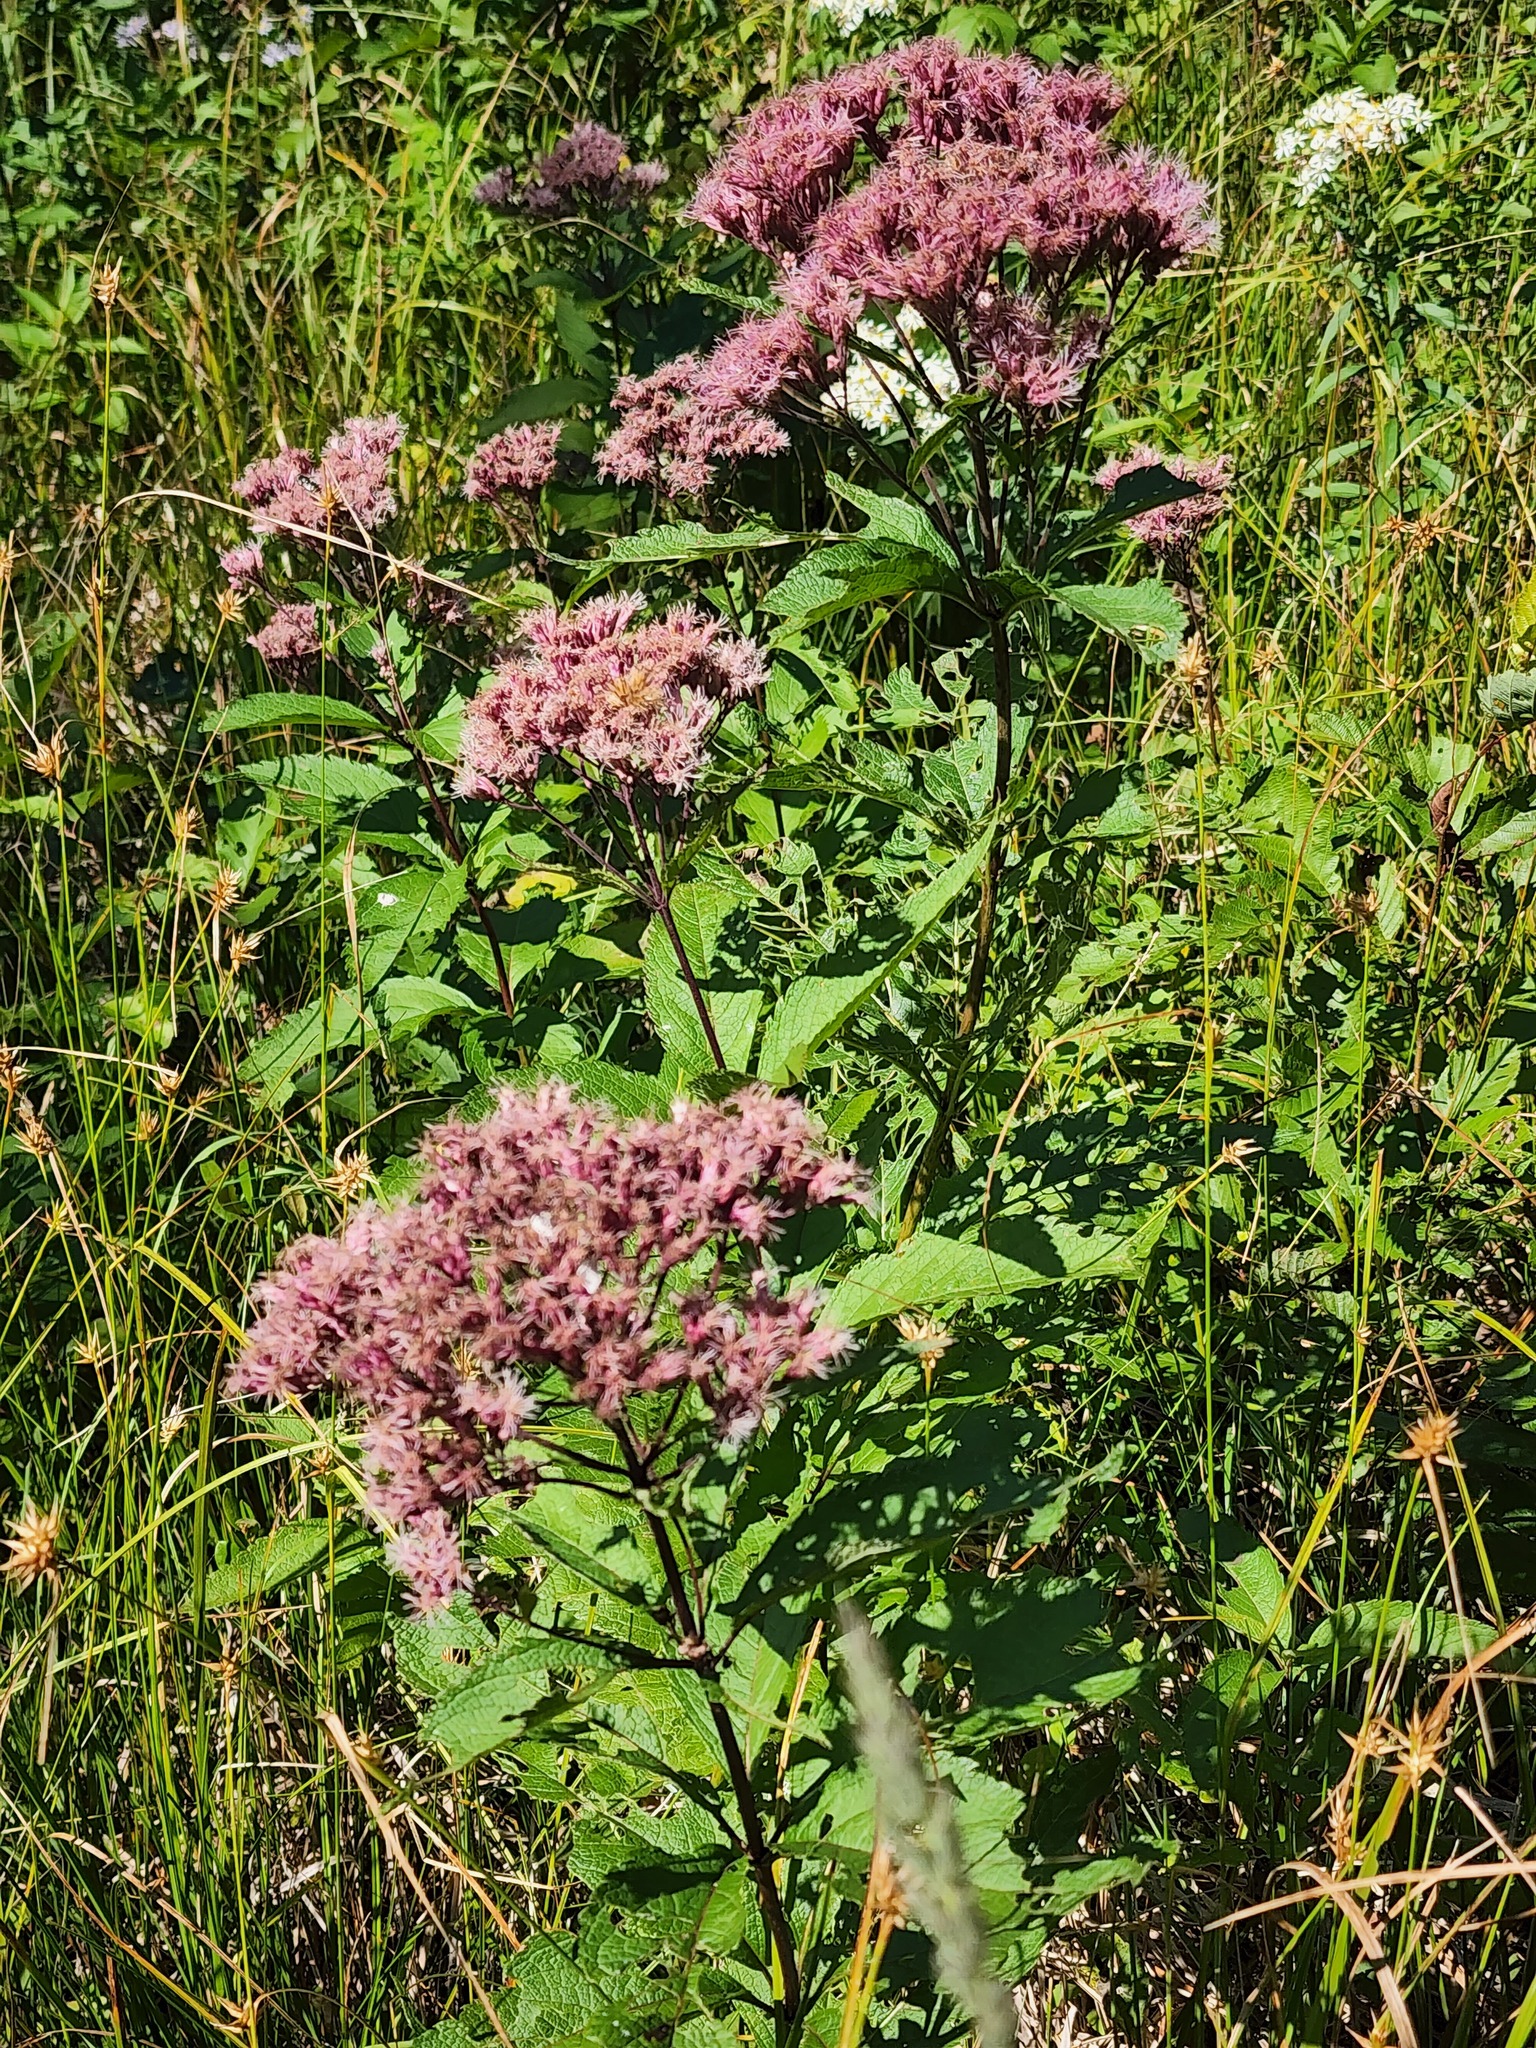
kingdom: Plantae
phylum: Tracheophyta
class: Magnoliopsida
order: Asterales
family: Asteraceae
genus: Eutrochium
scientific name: Eutrochium maculatum
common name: Spotted joe pye weed
